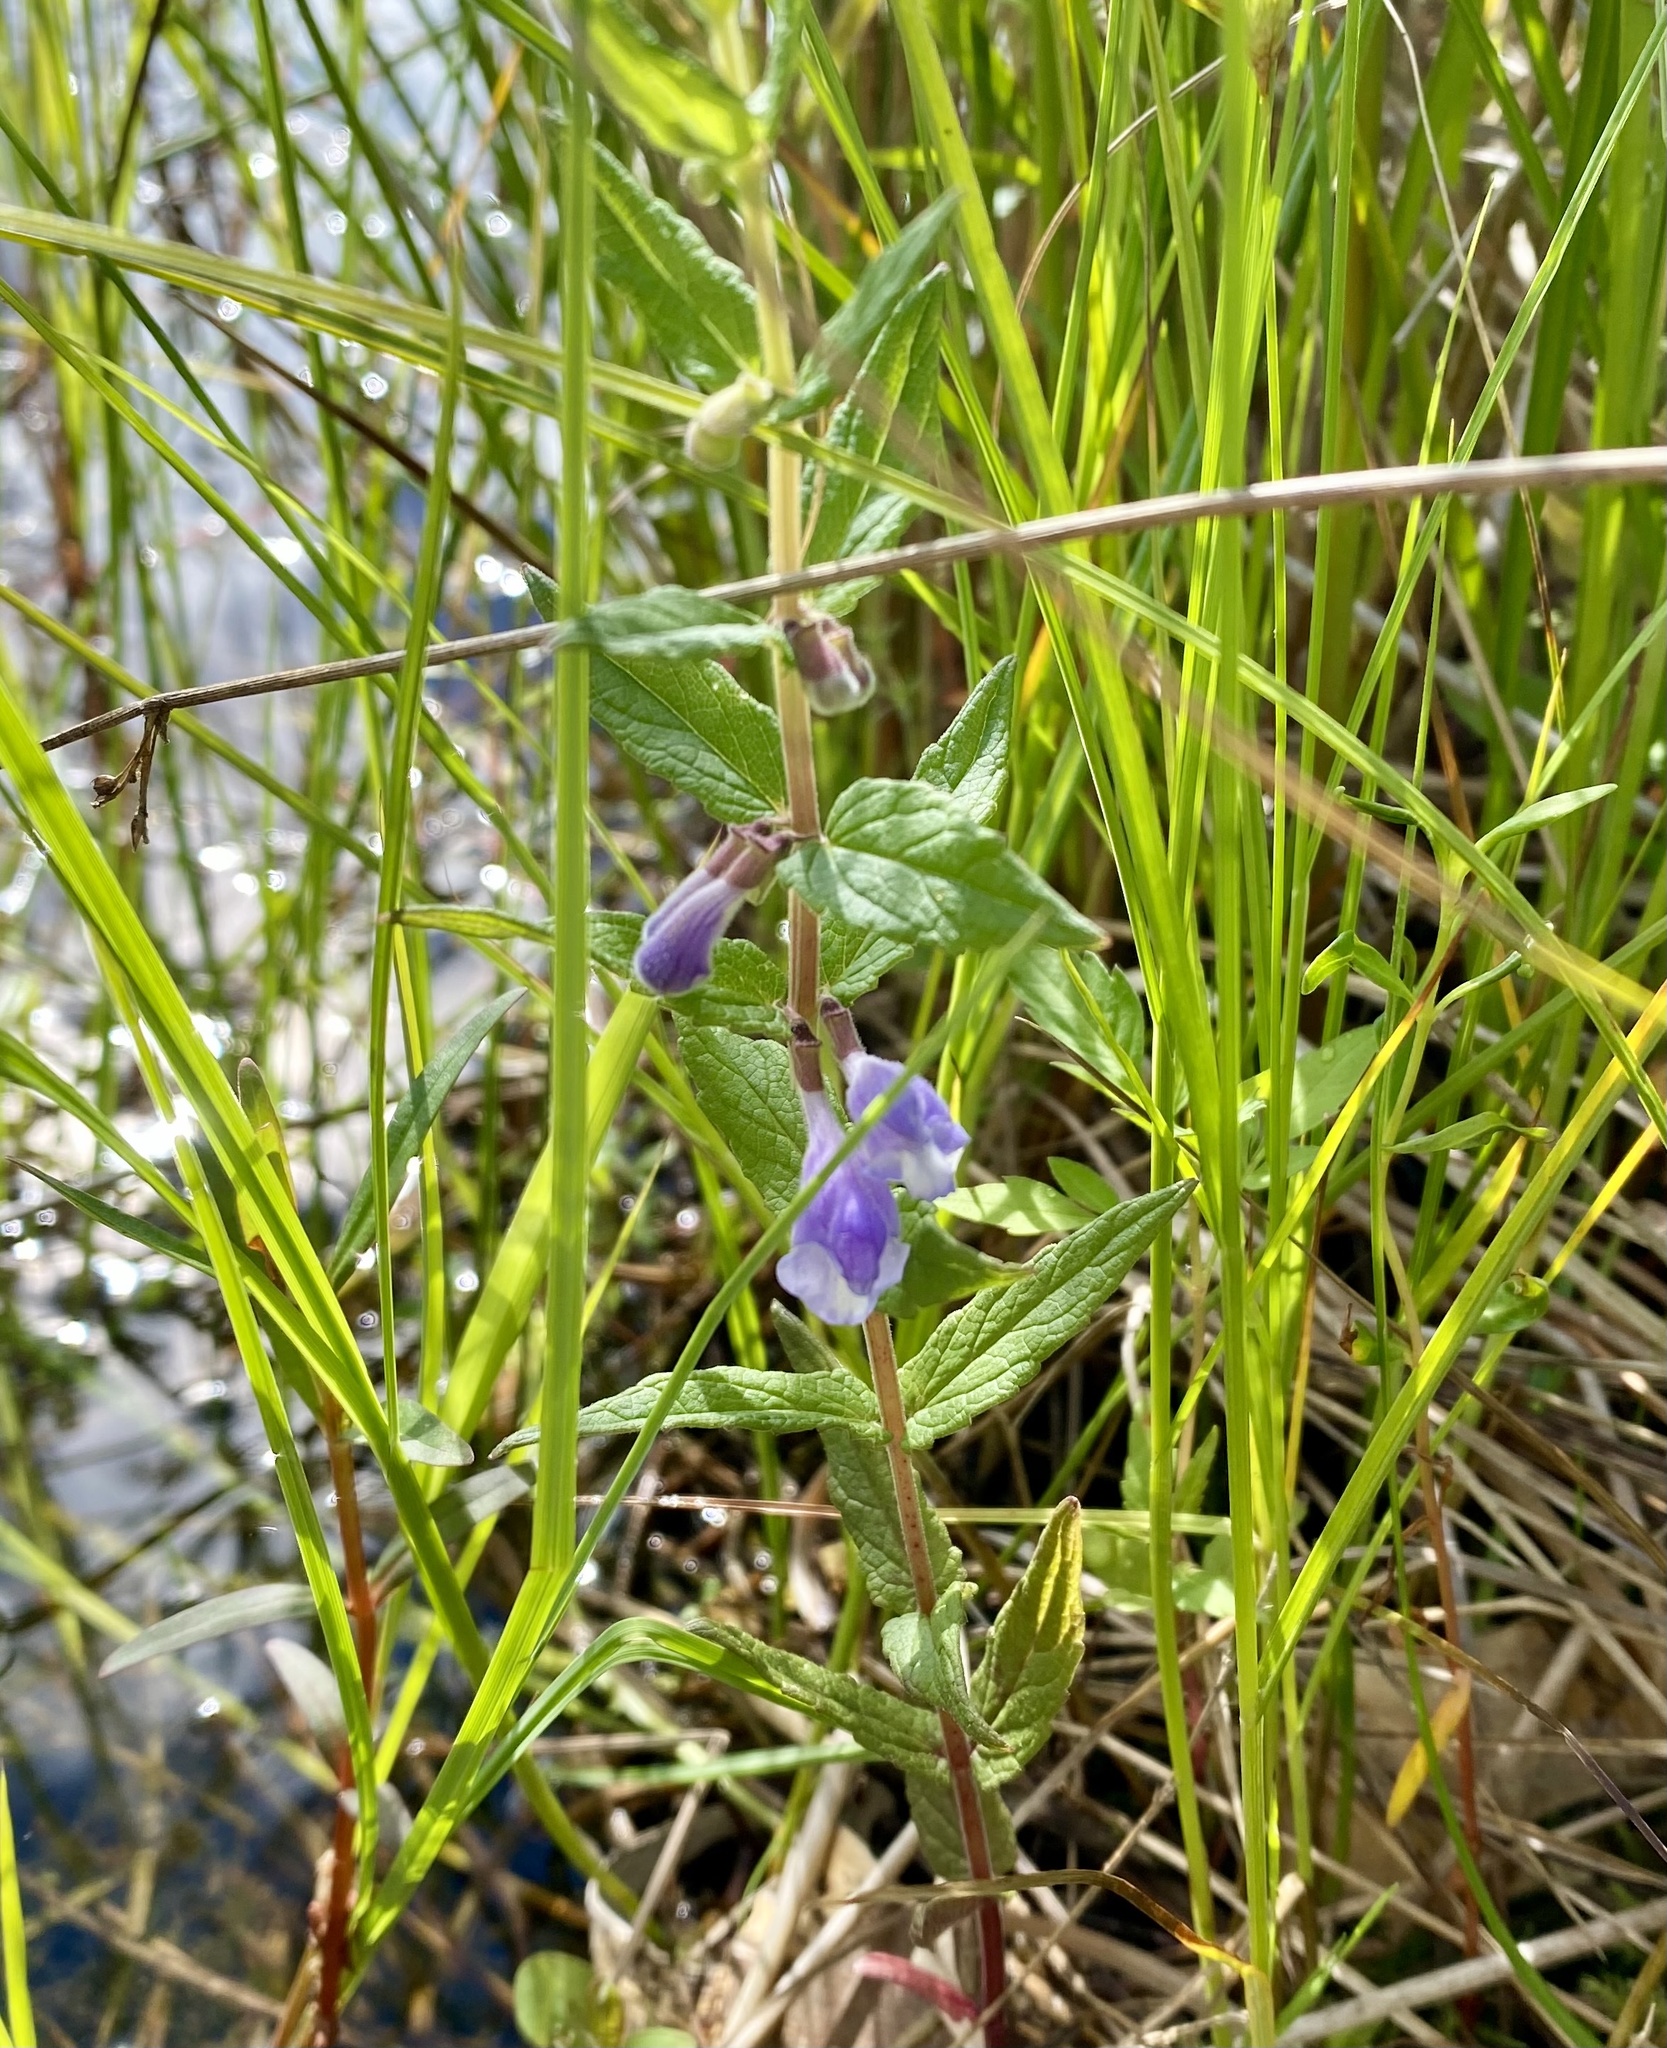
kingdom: Plantae
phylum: Tracheophyta
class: Magnoliopsida
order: Lamiales
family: Lamiaceae
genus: Scutellaria
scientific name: Scutellaria galericulata
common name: Skullcap
